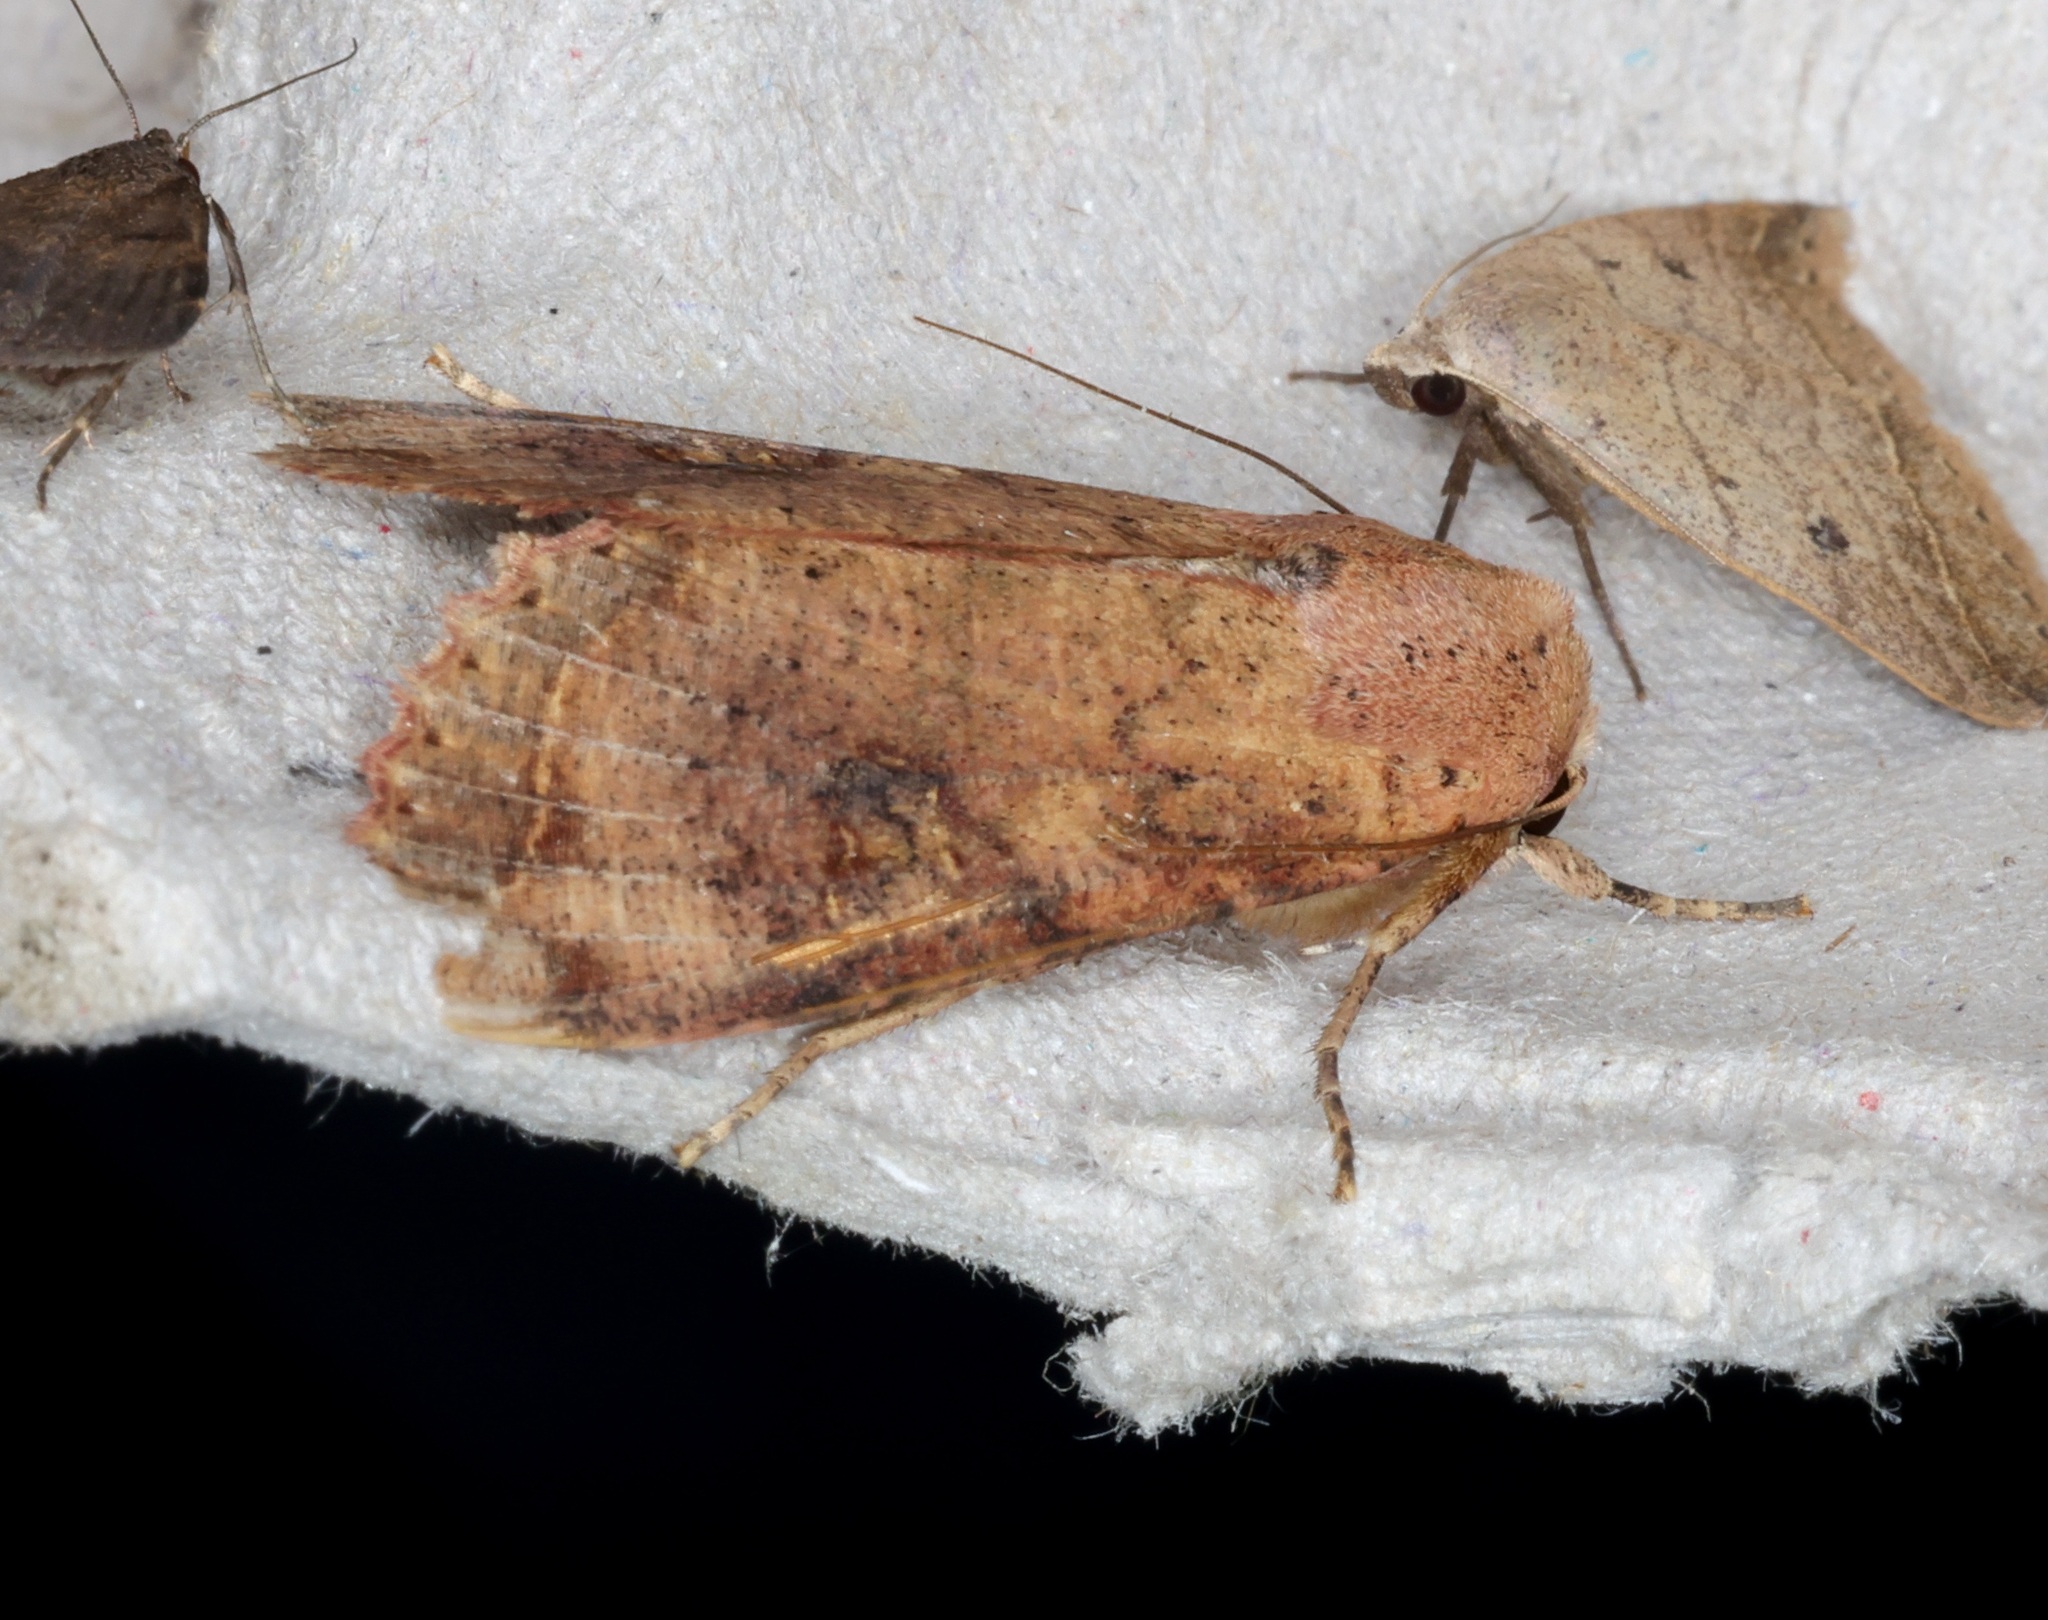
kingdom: Animalia
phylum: Arthropoda
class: Insecta
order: Lepidoptera
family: Noctuidae
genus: Tiracola
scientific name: Tiracola aureata
